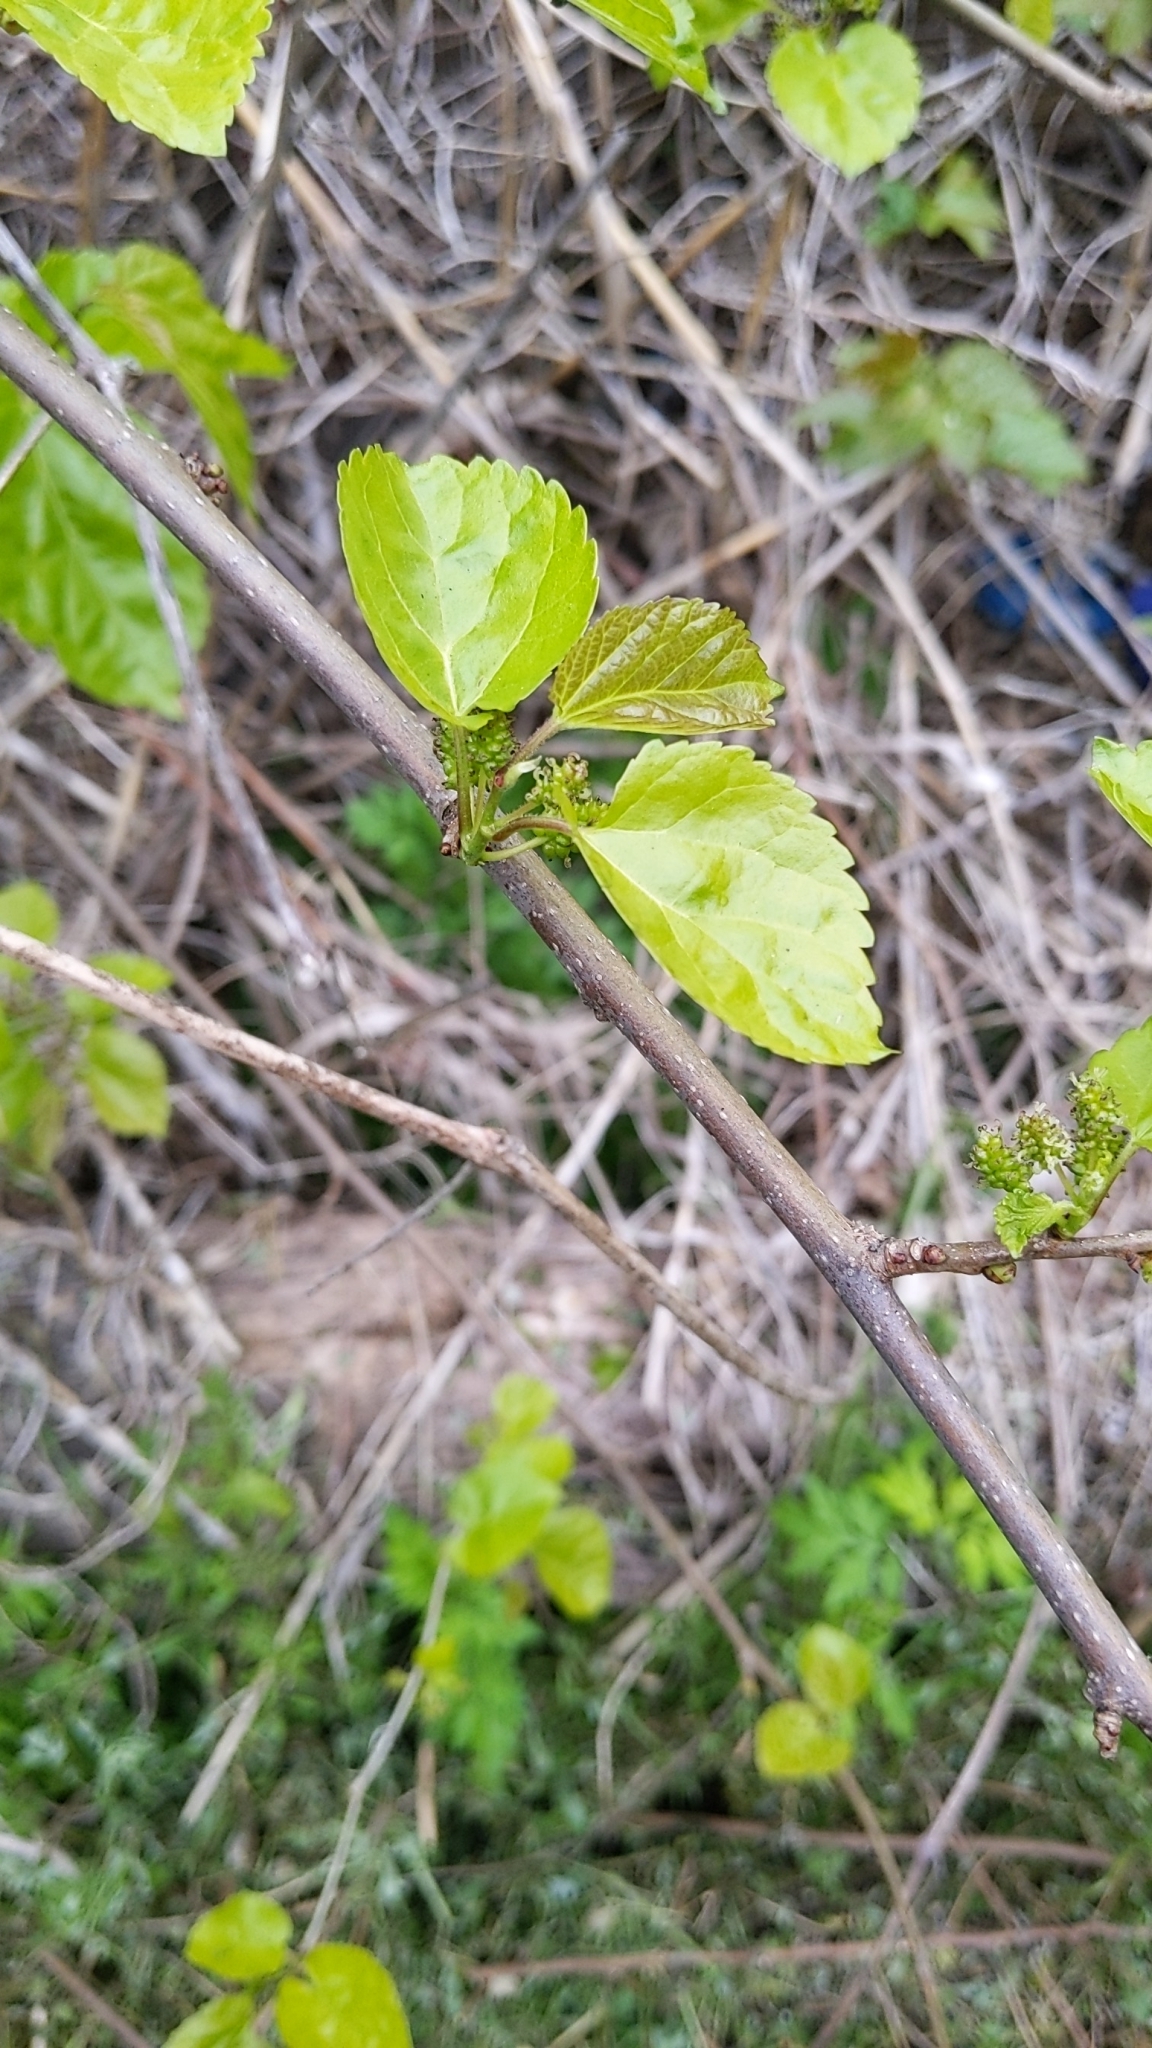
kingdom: Plantae
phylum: Tracheophyta
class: Magnoliopsida
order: Rosales
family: Moraceae
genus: Morus
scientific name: Morus alba
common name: White mulberry
